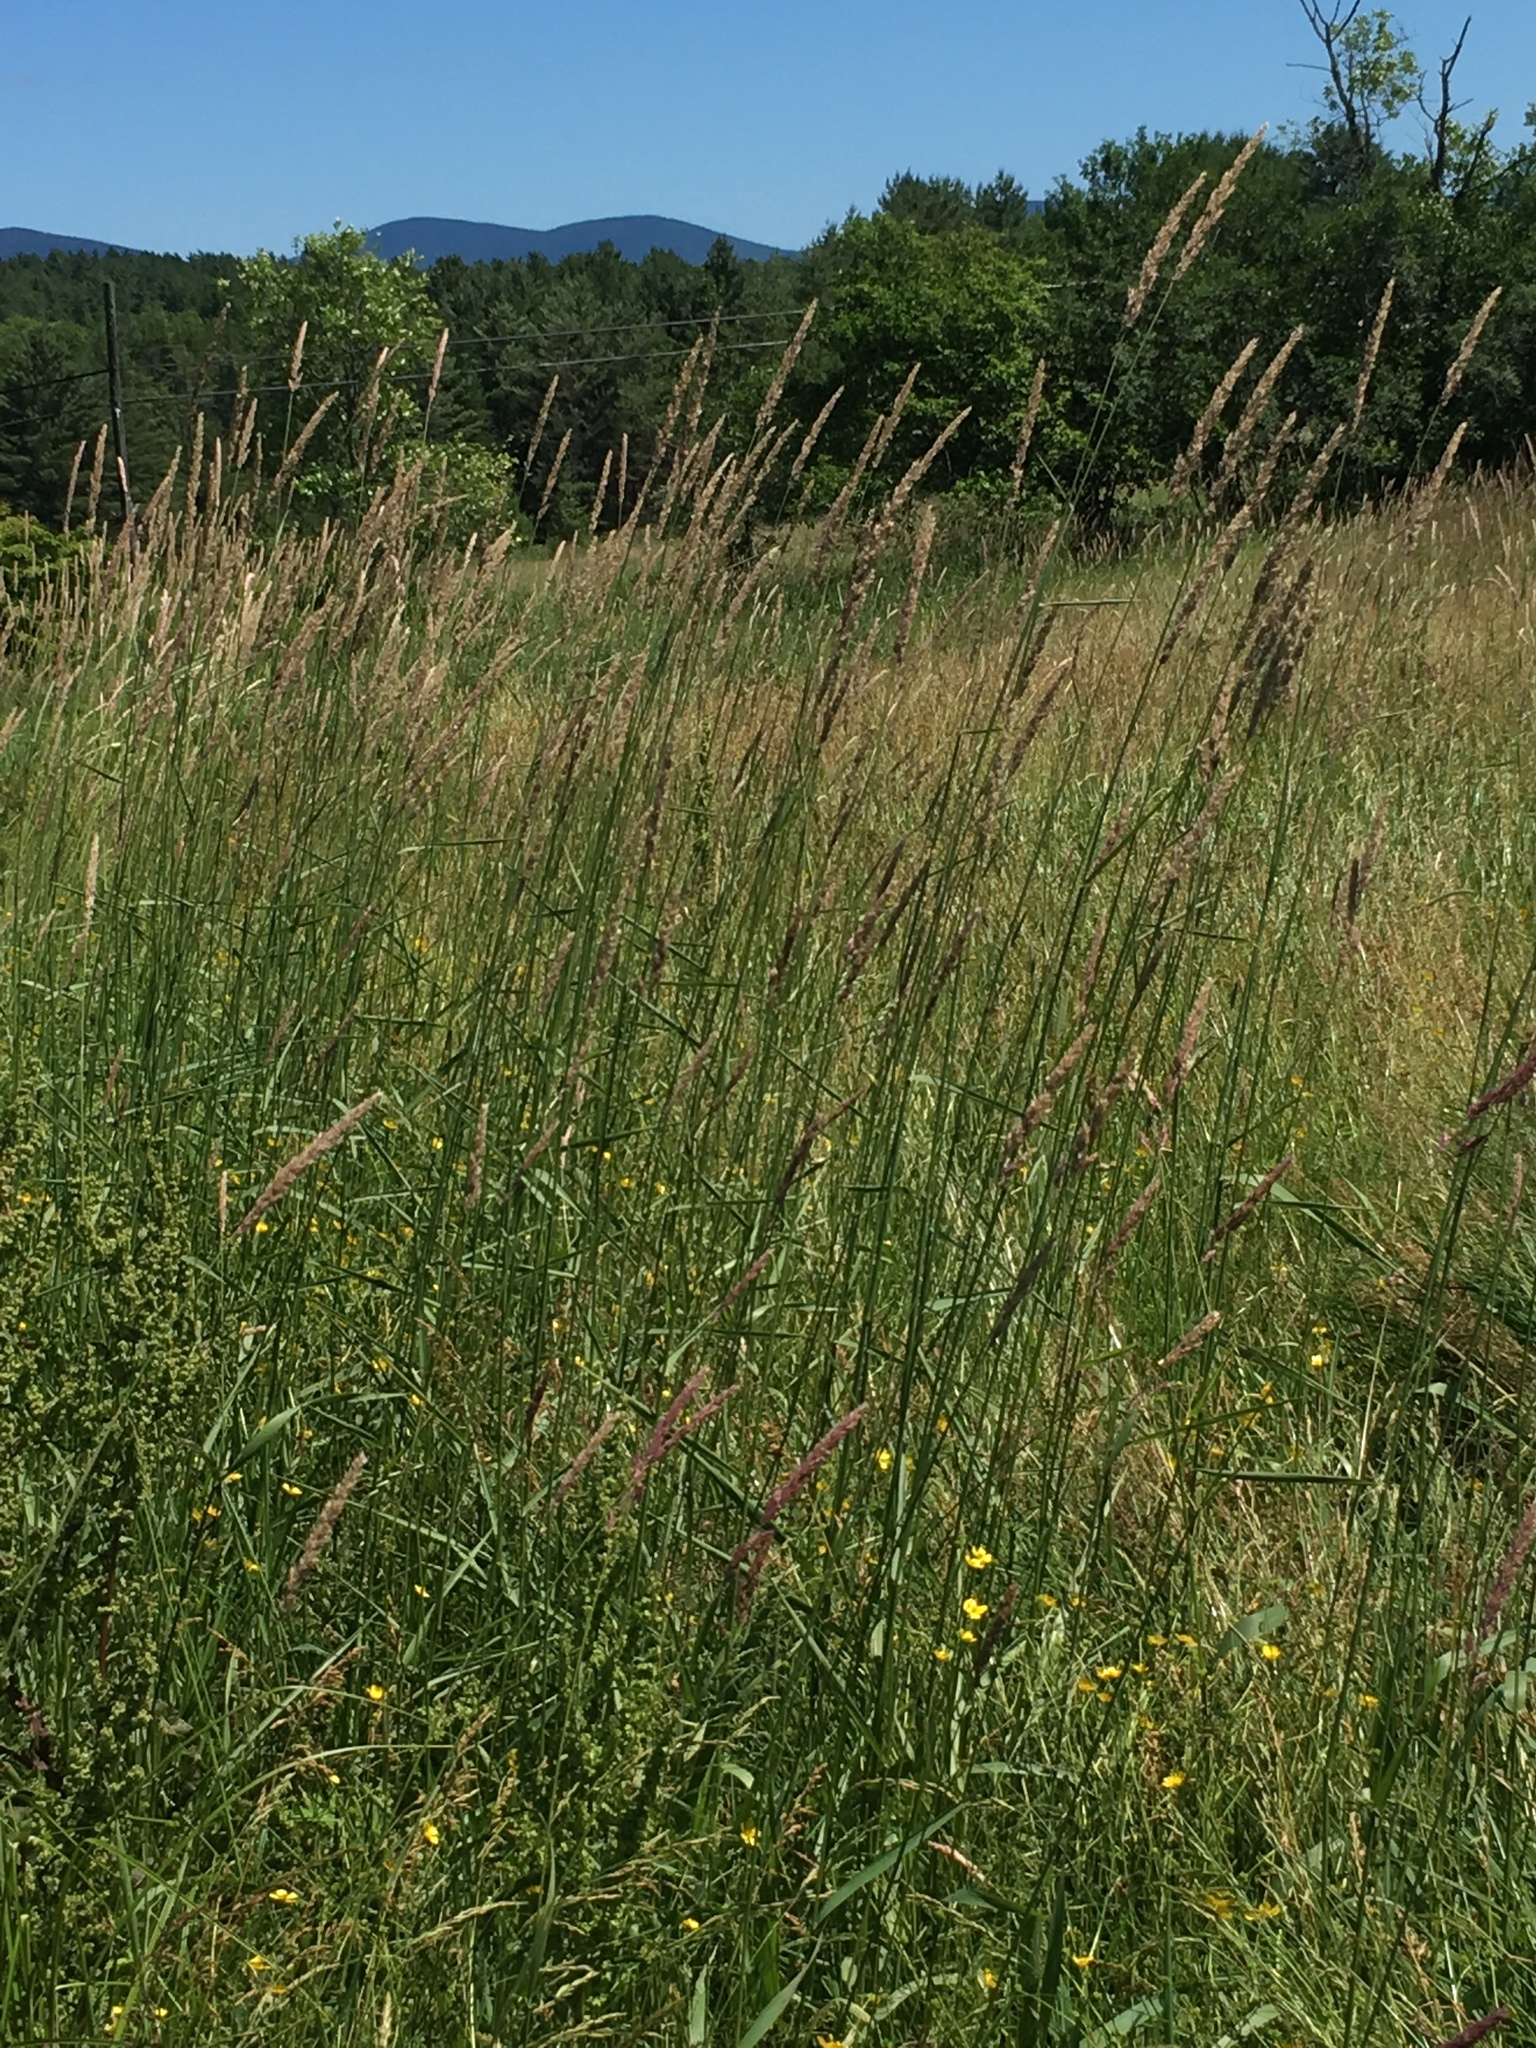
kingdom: Plantae
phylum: Tracheophyta
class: Liliopsida
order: Poales
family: Poaceae
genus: Phalaris
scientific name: Phalaris arundinacea
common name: Reed canary-grass
